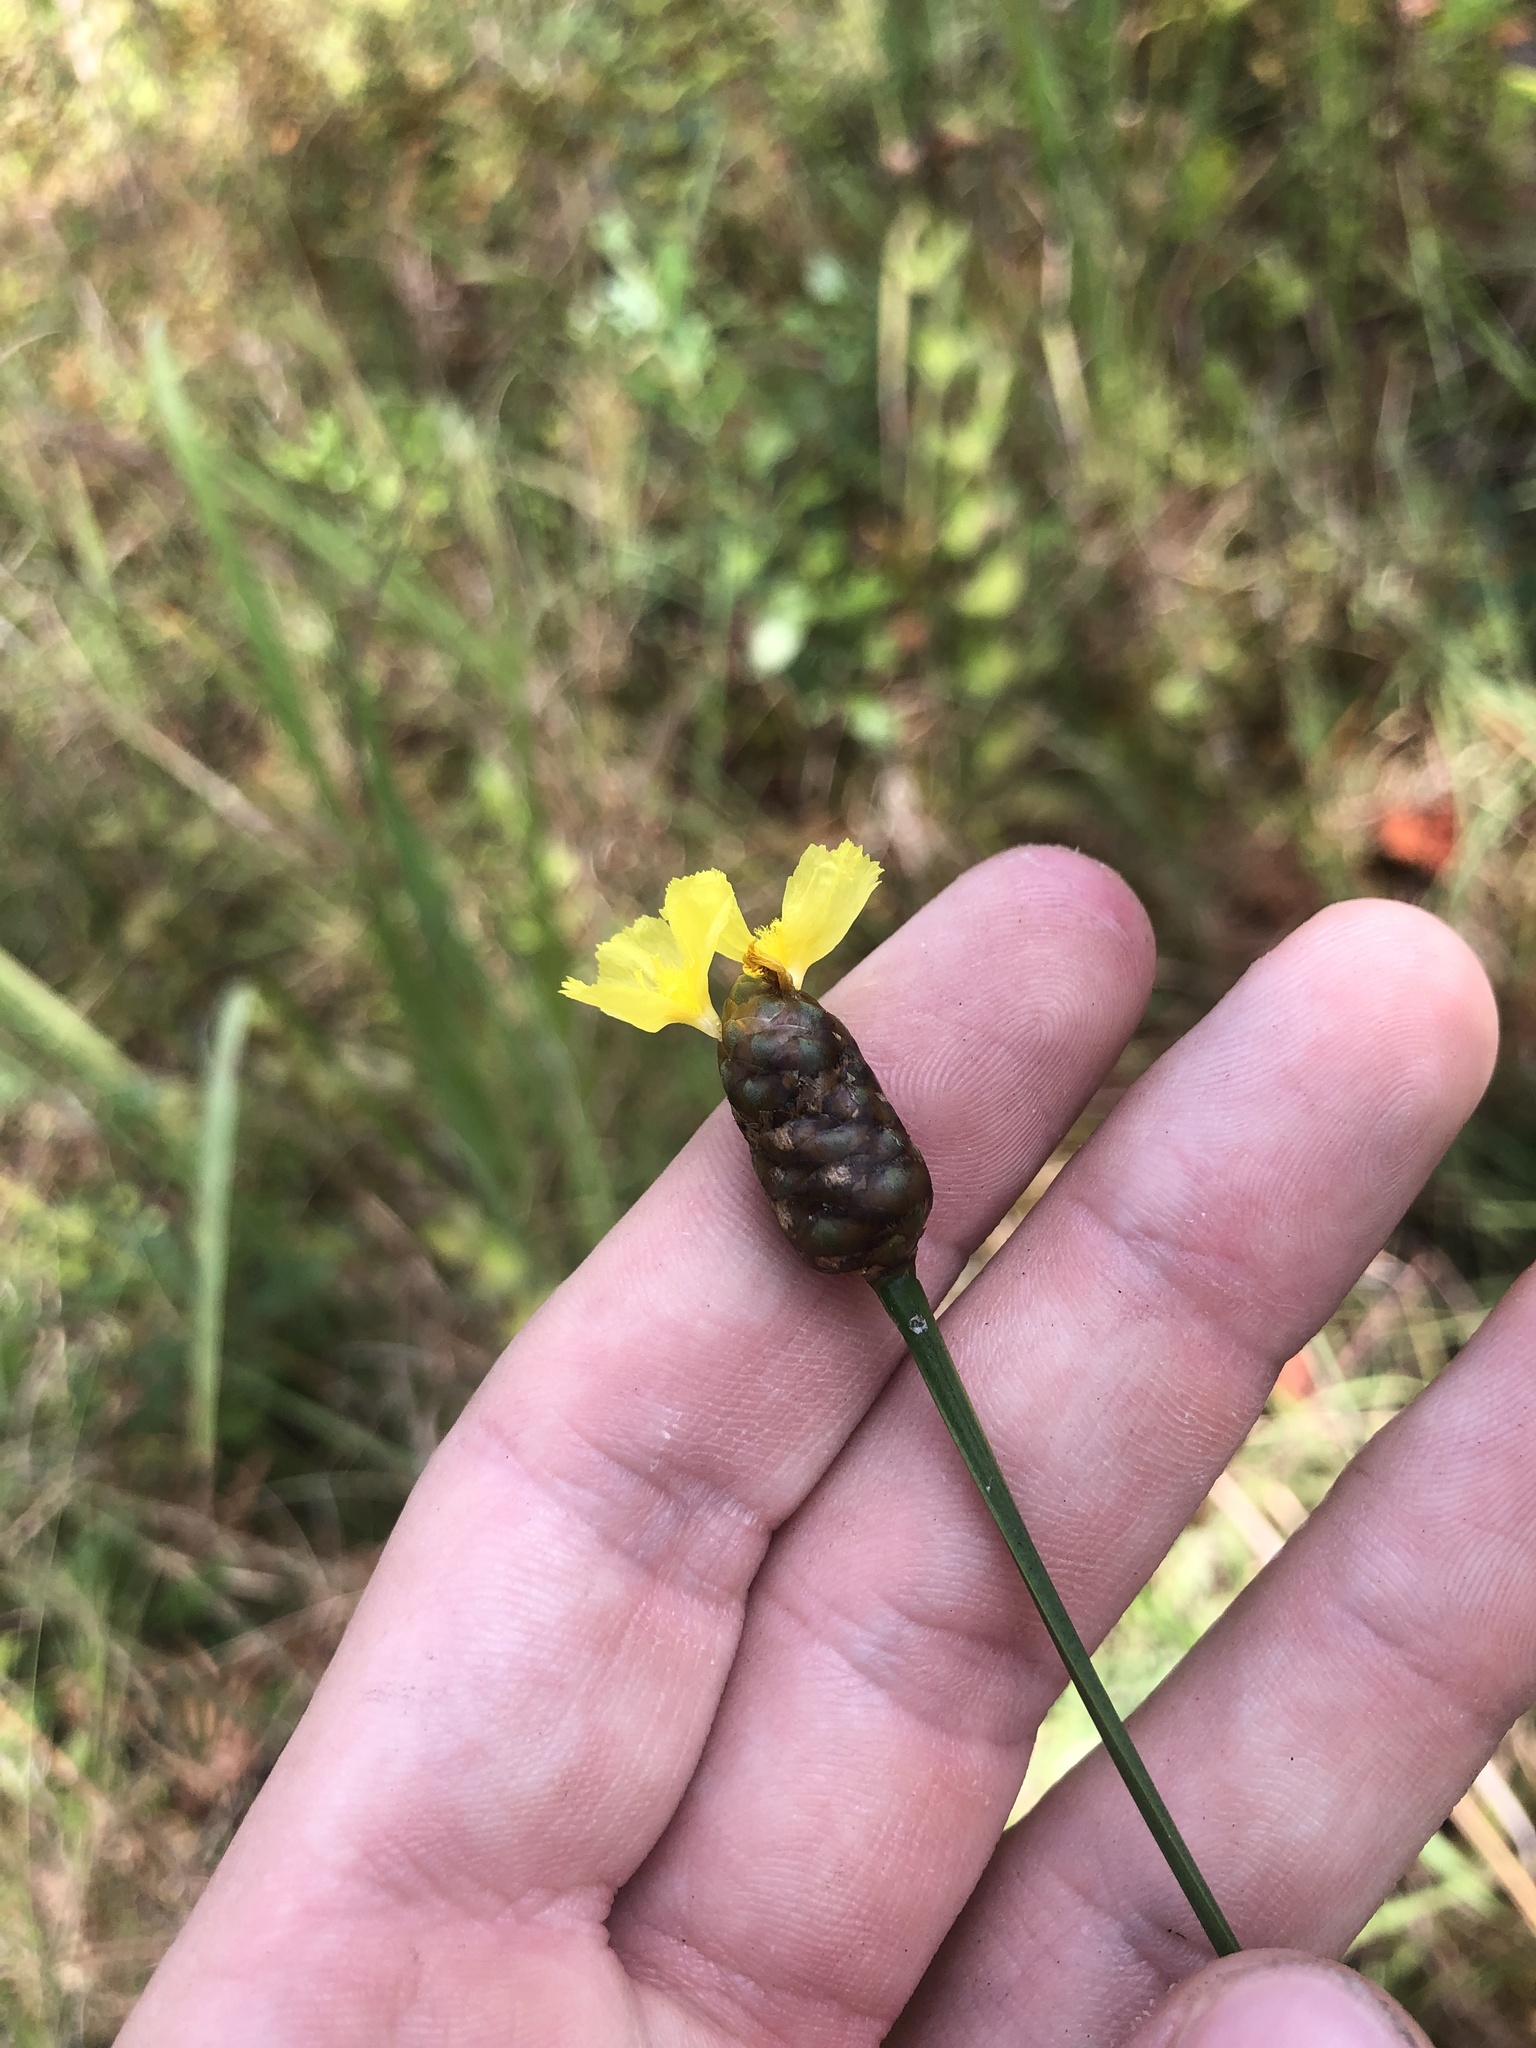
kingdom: Plantae
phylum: Tracheophyta
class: Liliopsida
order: Poales
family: Xyridaceae
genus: Xyris
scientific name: Xyris platylepis
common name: Tall yelloweyed grass
